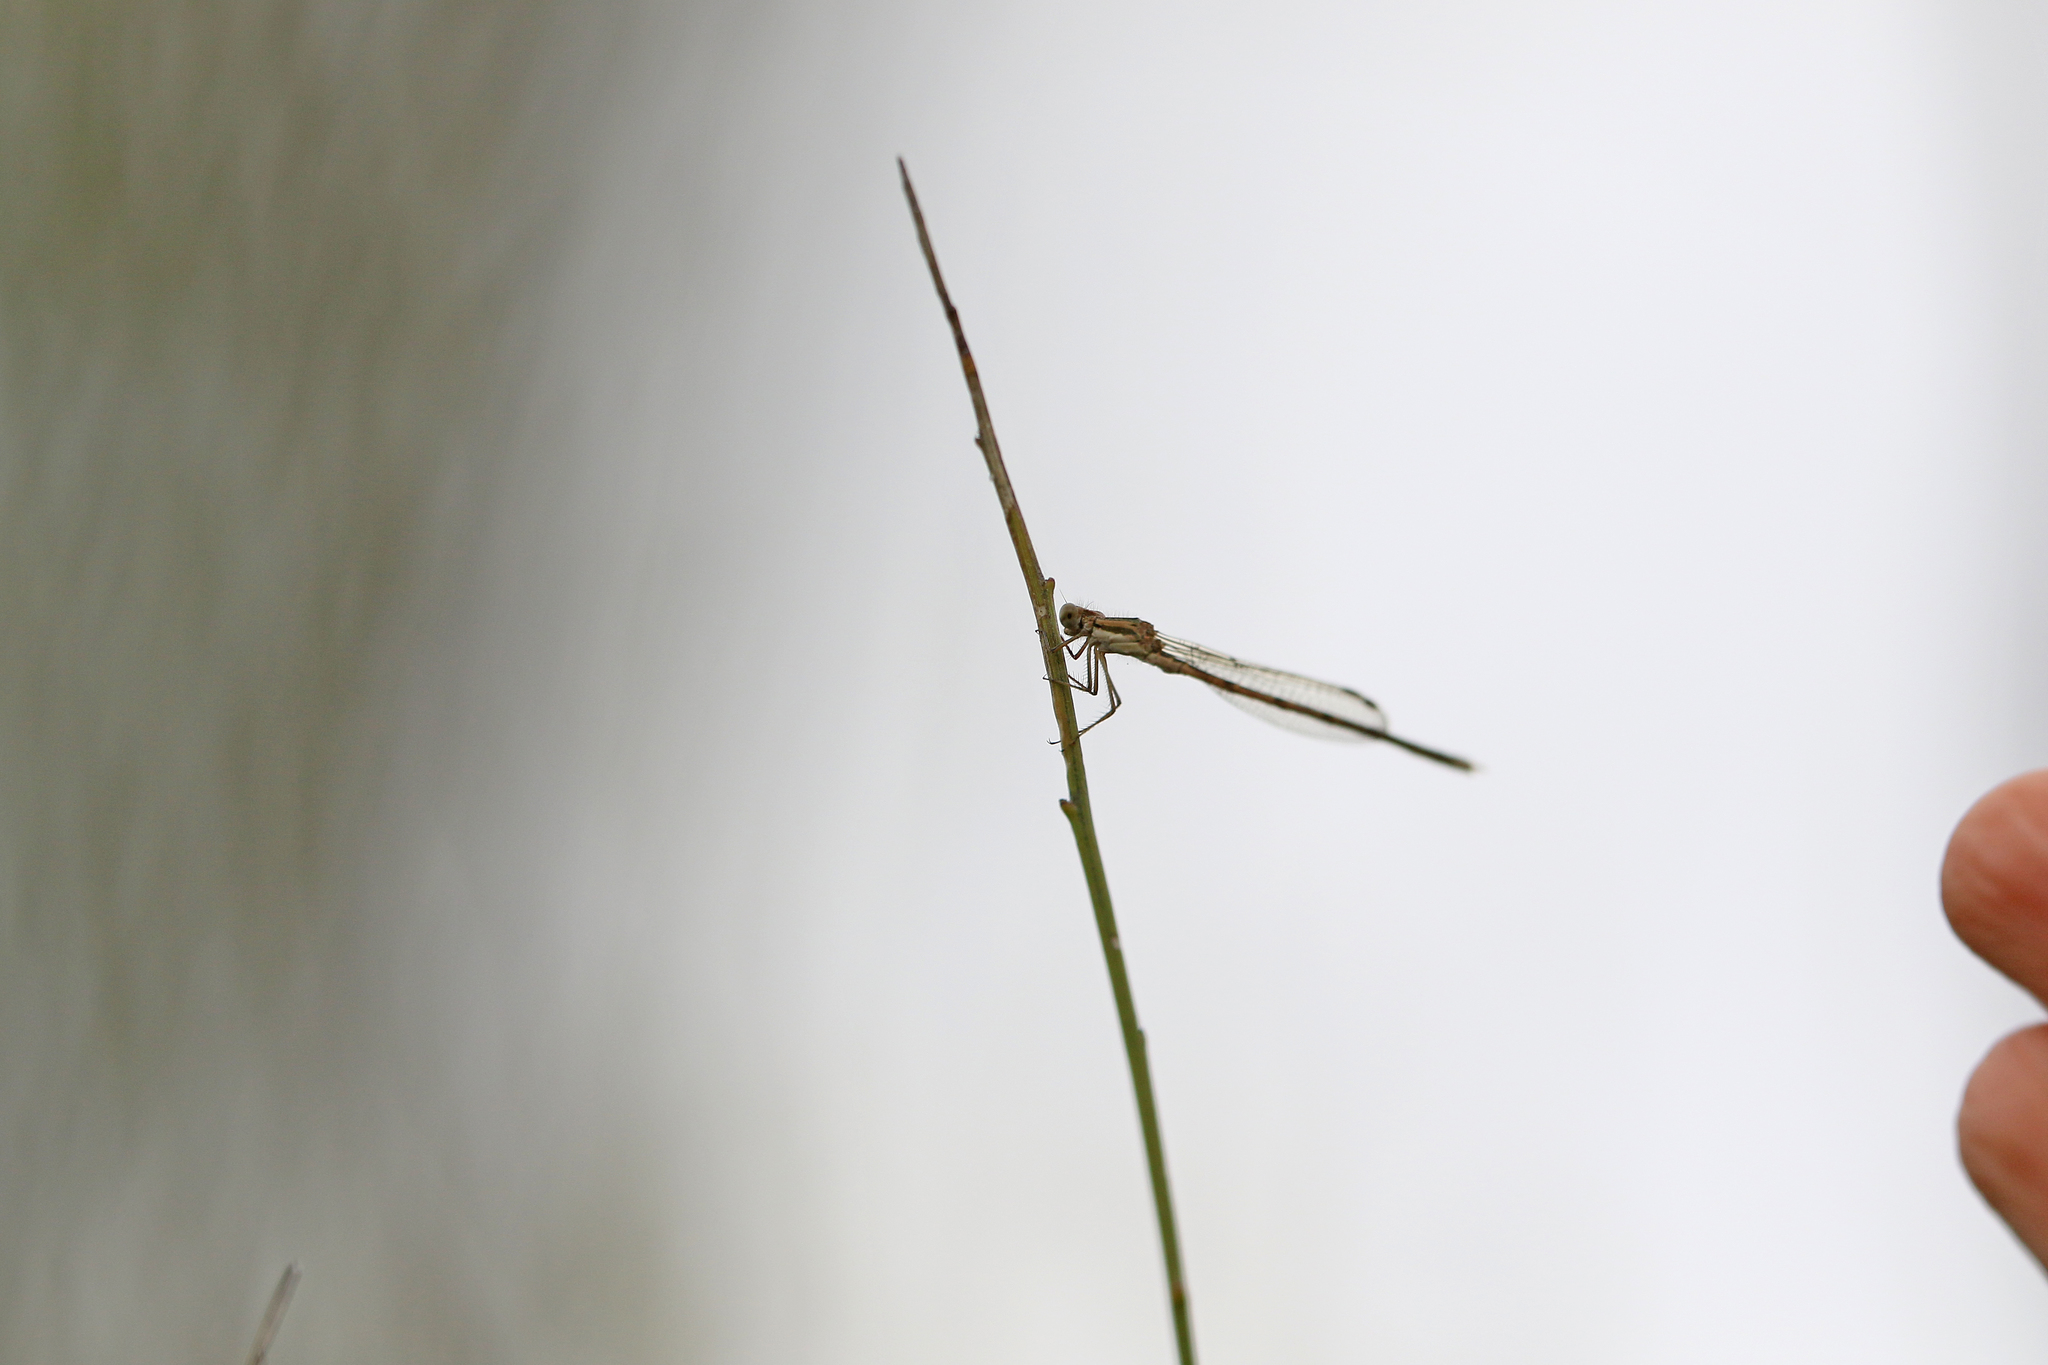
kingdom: Animalia
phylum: Arthropoda
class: Insecta
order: Odonata
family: Lestidae
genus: Sympecma
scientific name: Sympecma fusca
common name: Common winter damsel
